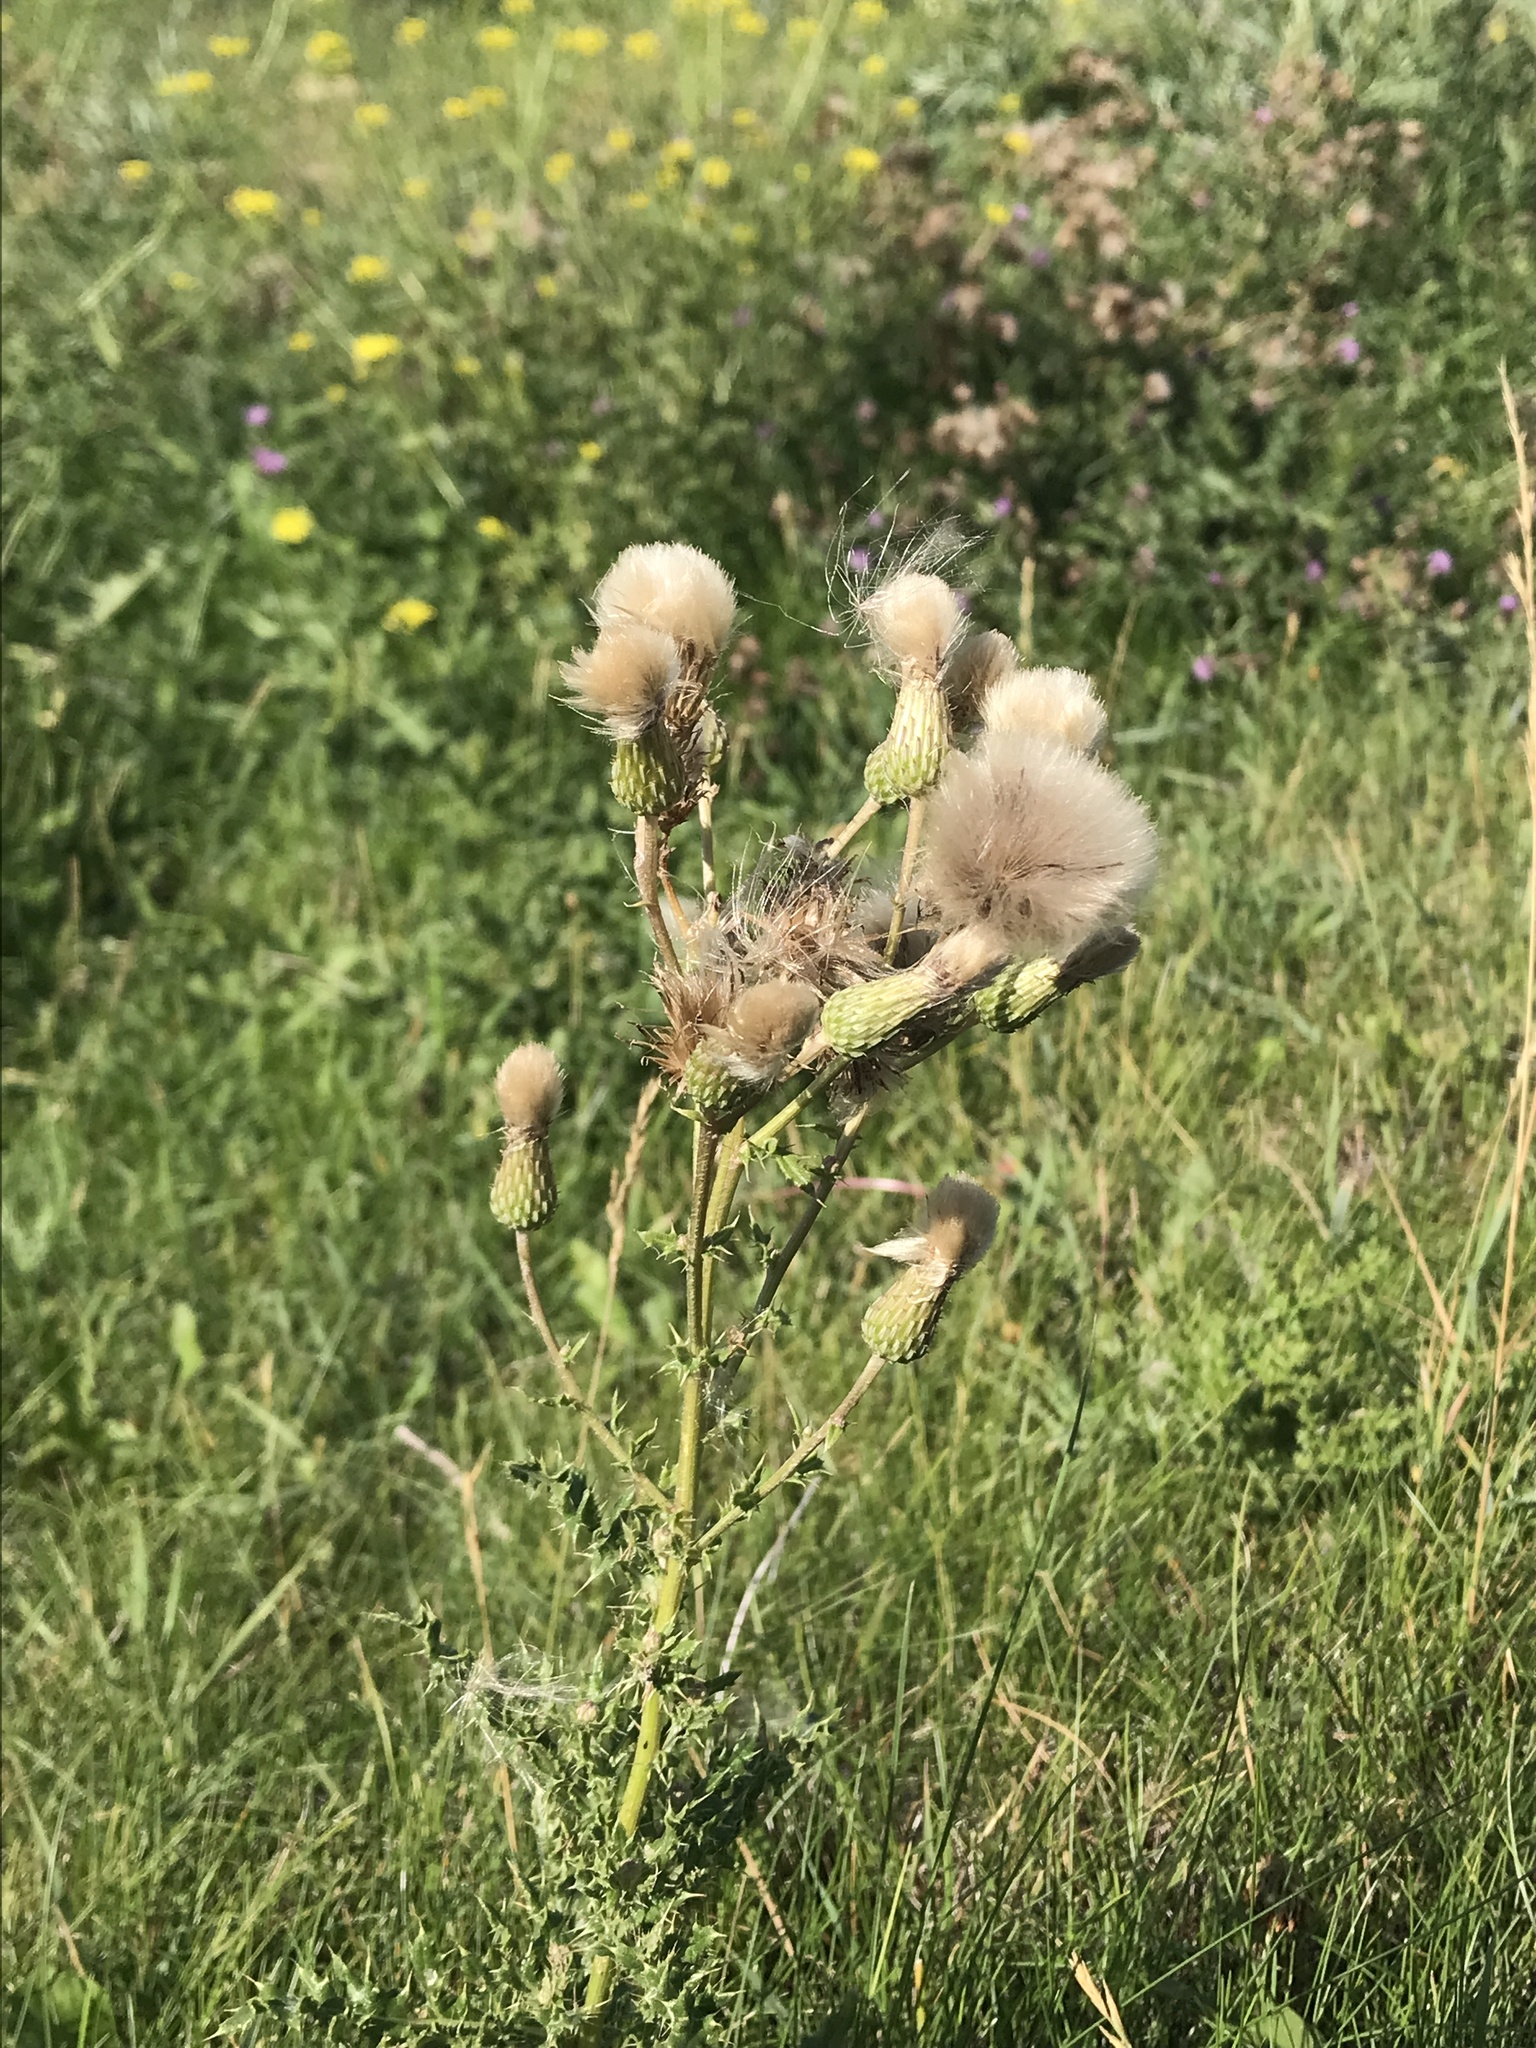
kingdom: Plantae
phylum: Tracheophyta
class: Magnoliopsida
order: Asterales
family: Asteraceae
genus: Cirsium
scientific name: Cirsium arvense
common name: Creeping thistle
